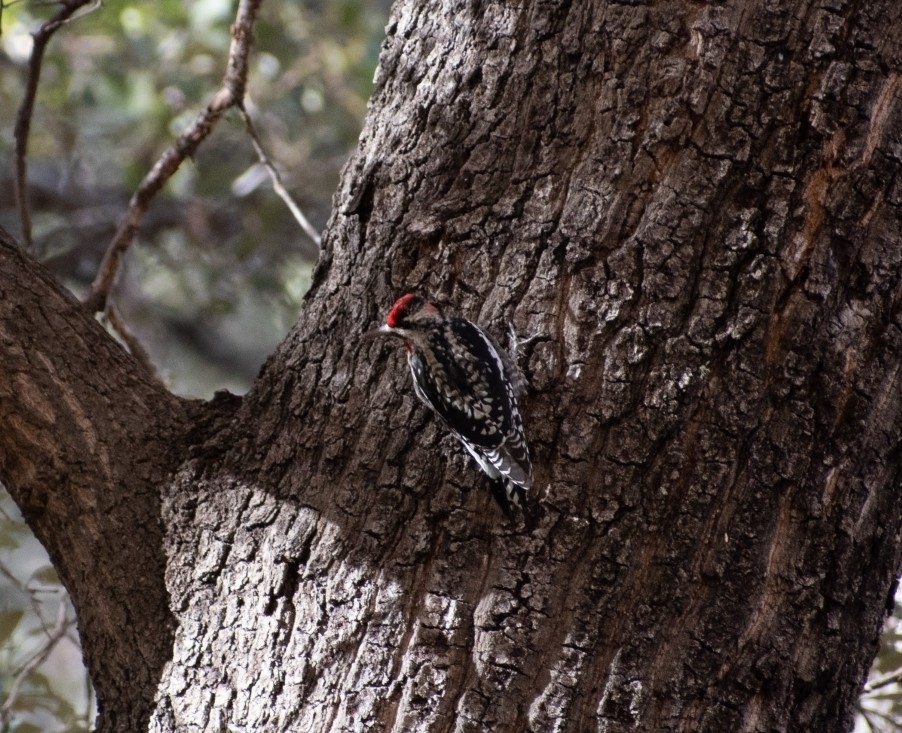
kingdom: Animalia
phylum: Chordata
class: Aves
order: Piciformes
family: Picidae
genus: Sphyrapicus
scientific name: Sphyrapicus nuchalis
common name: Red-naped sapsucker
